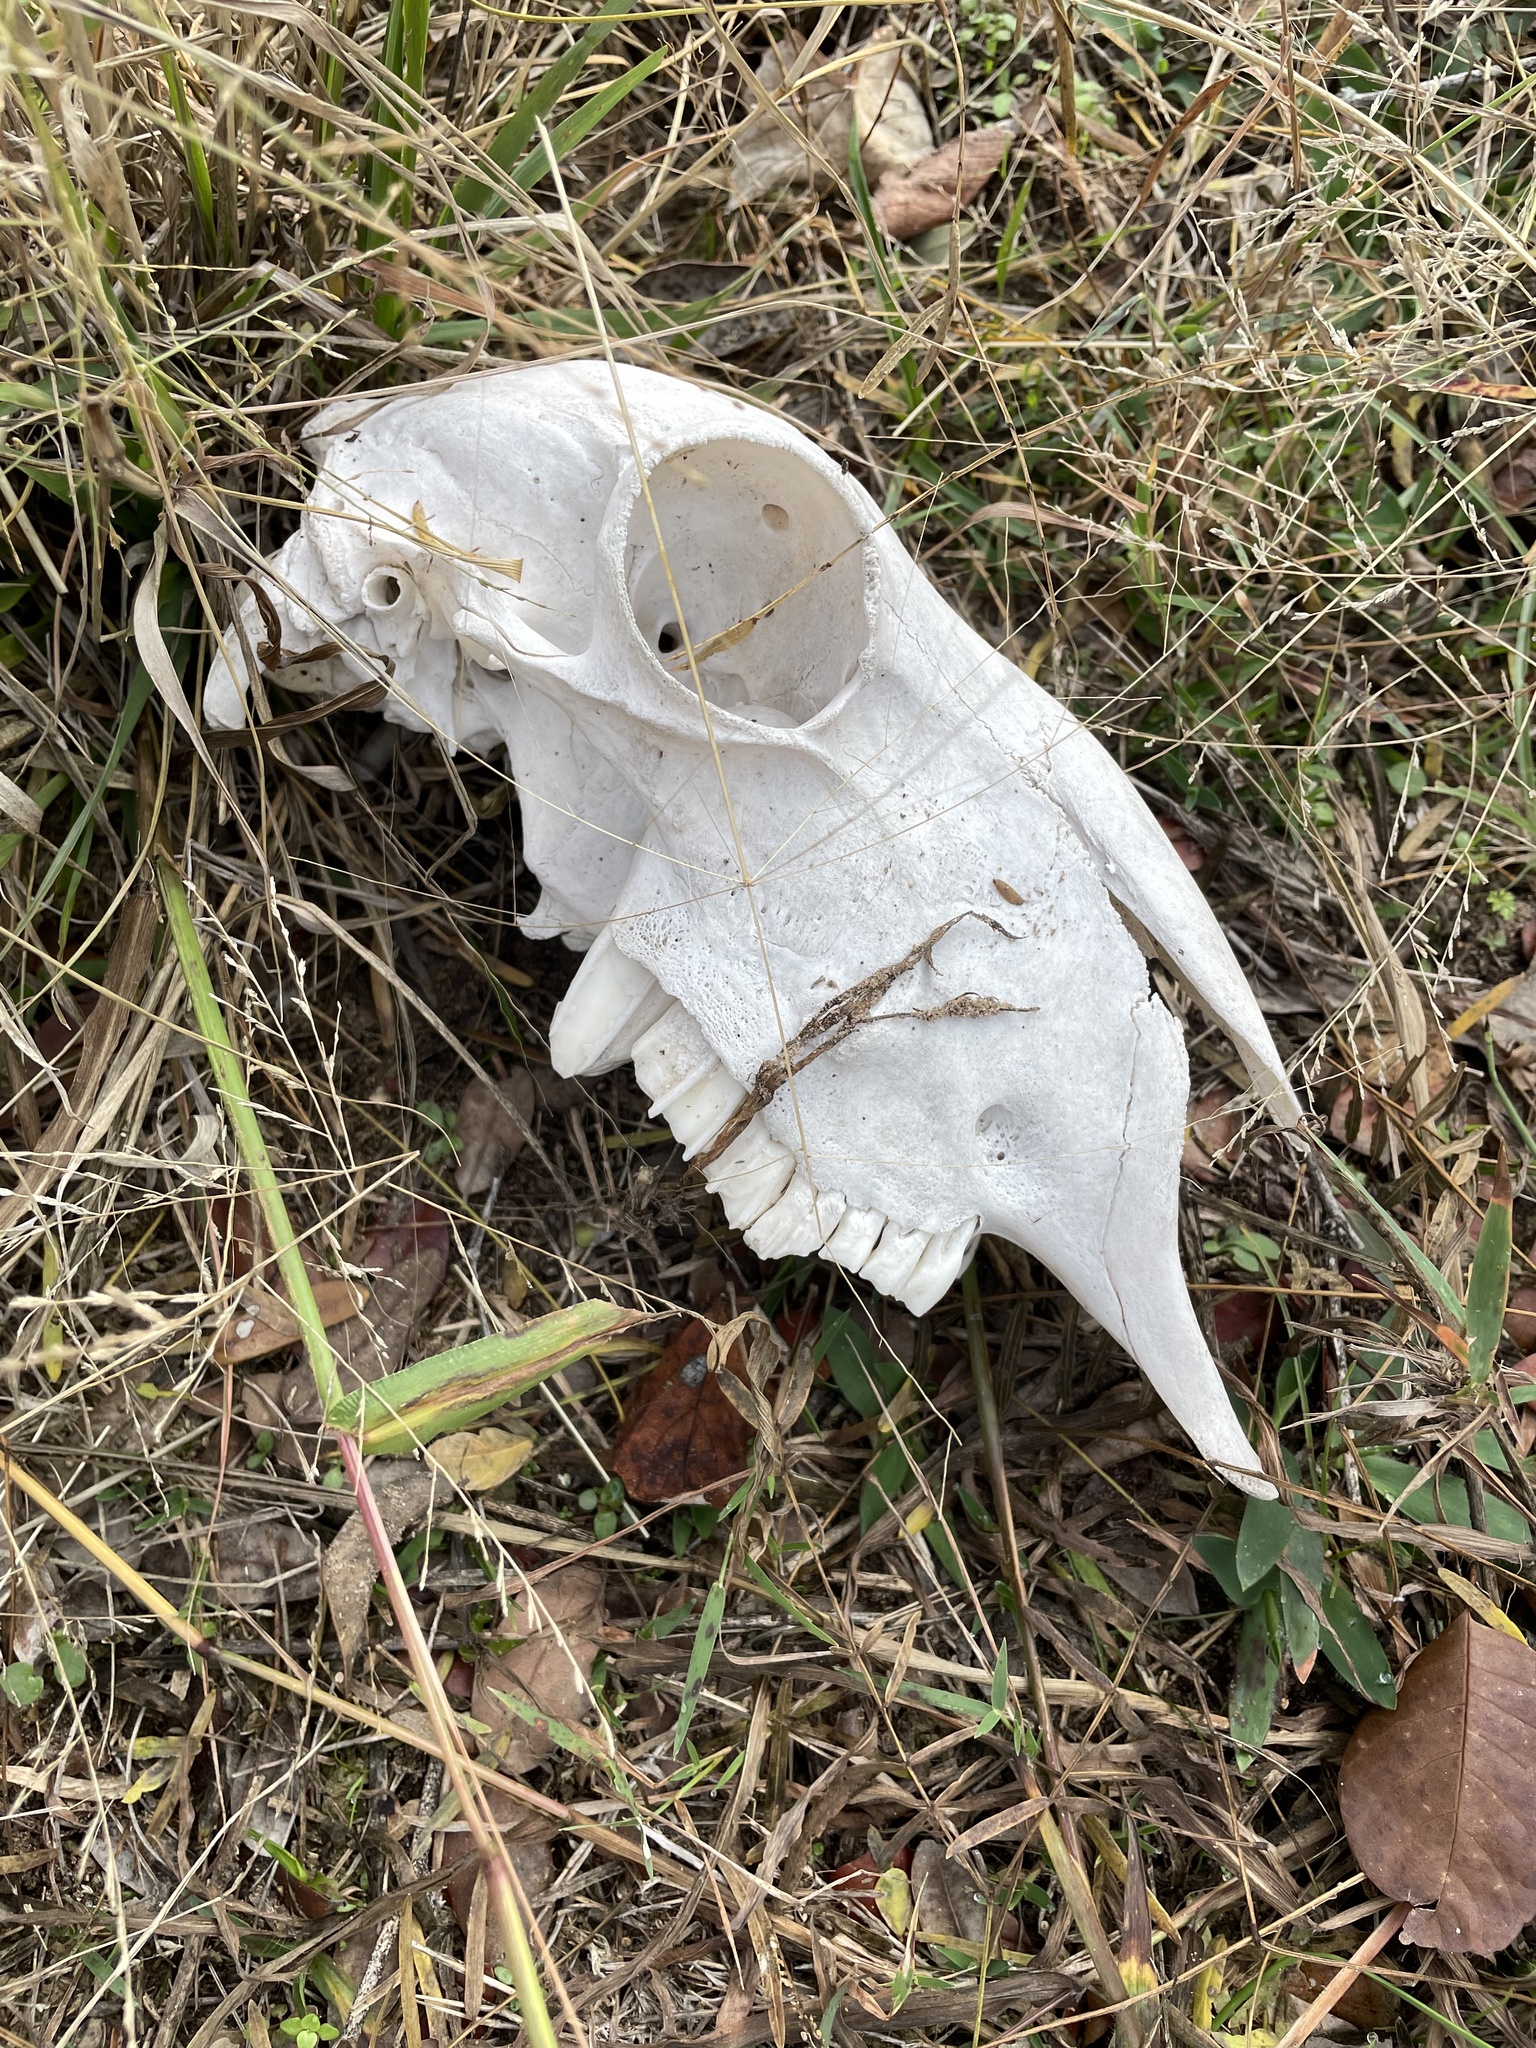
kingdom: Animalia
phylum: Chordata
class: Mammalia
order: Artiodactyla
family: Bovidae
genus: Ovis
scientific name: Ovis aries
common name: Domestic sheep
